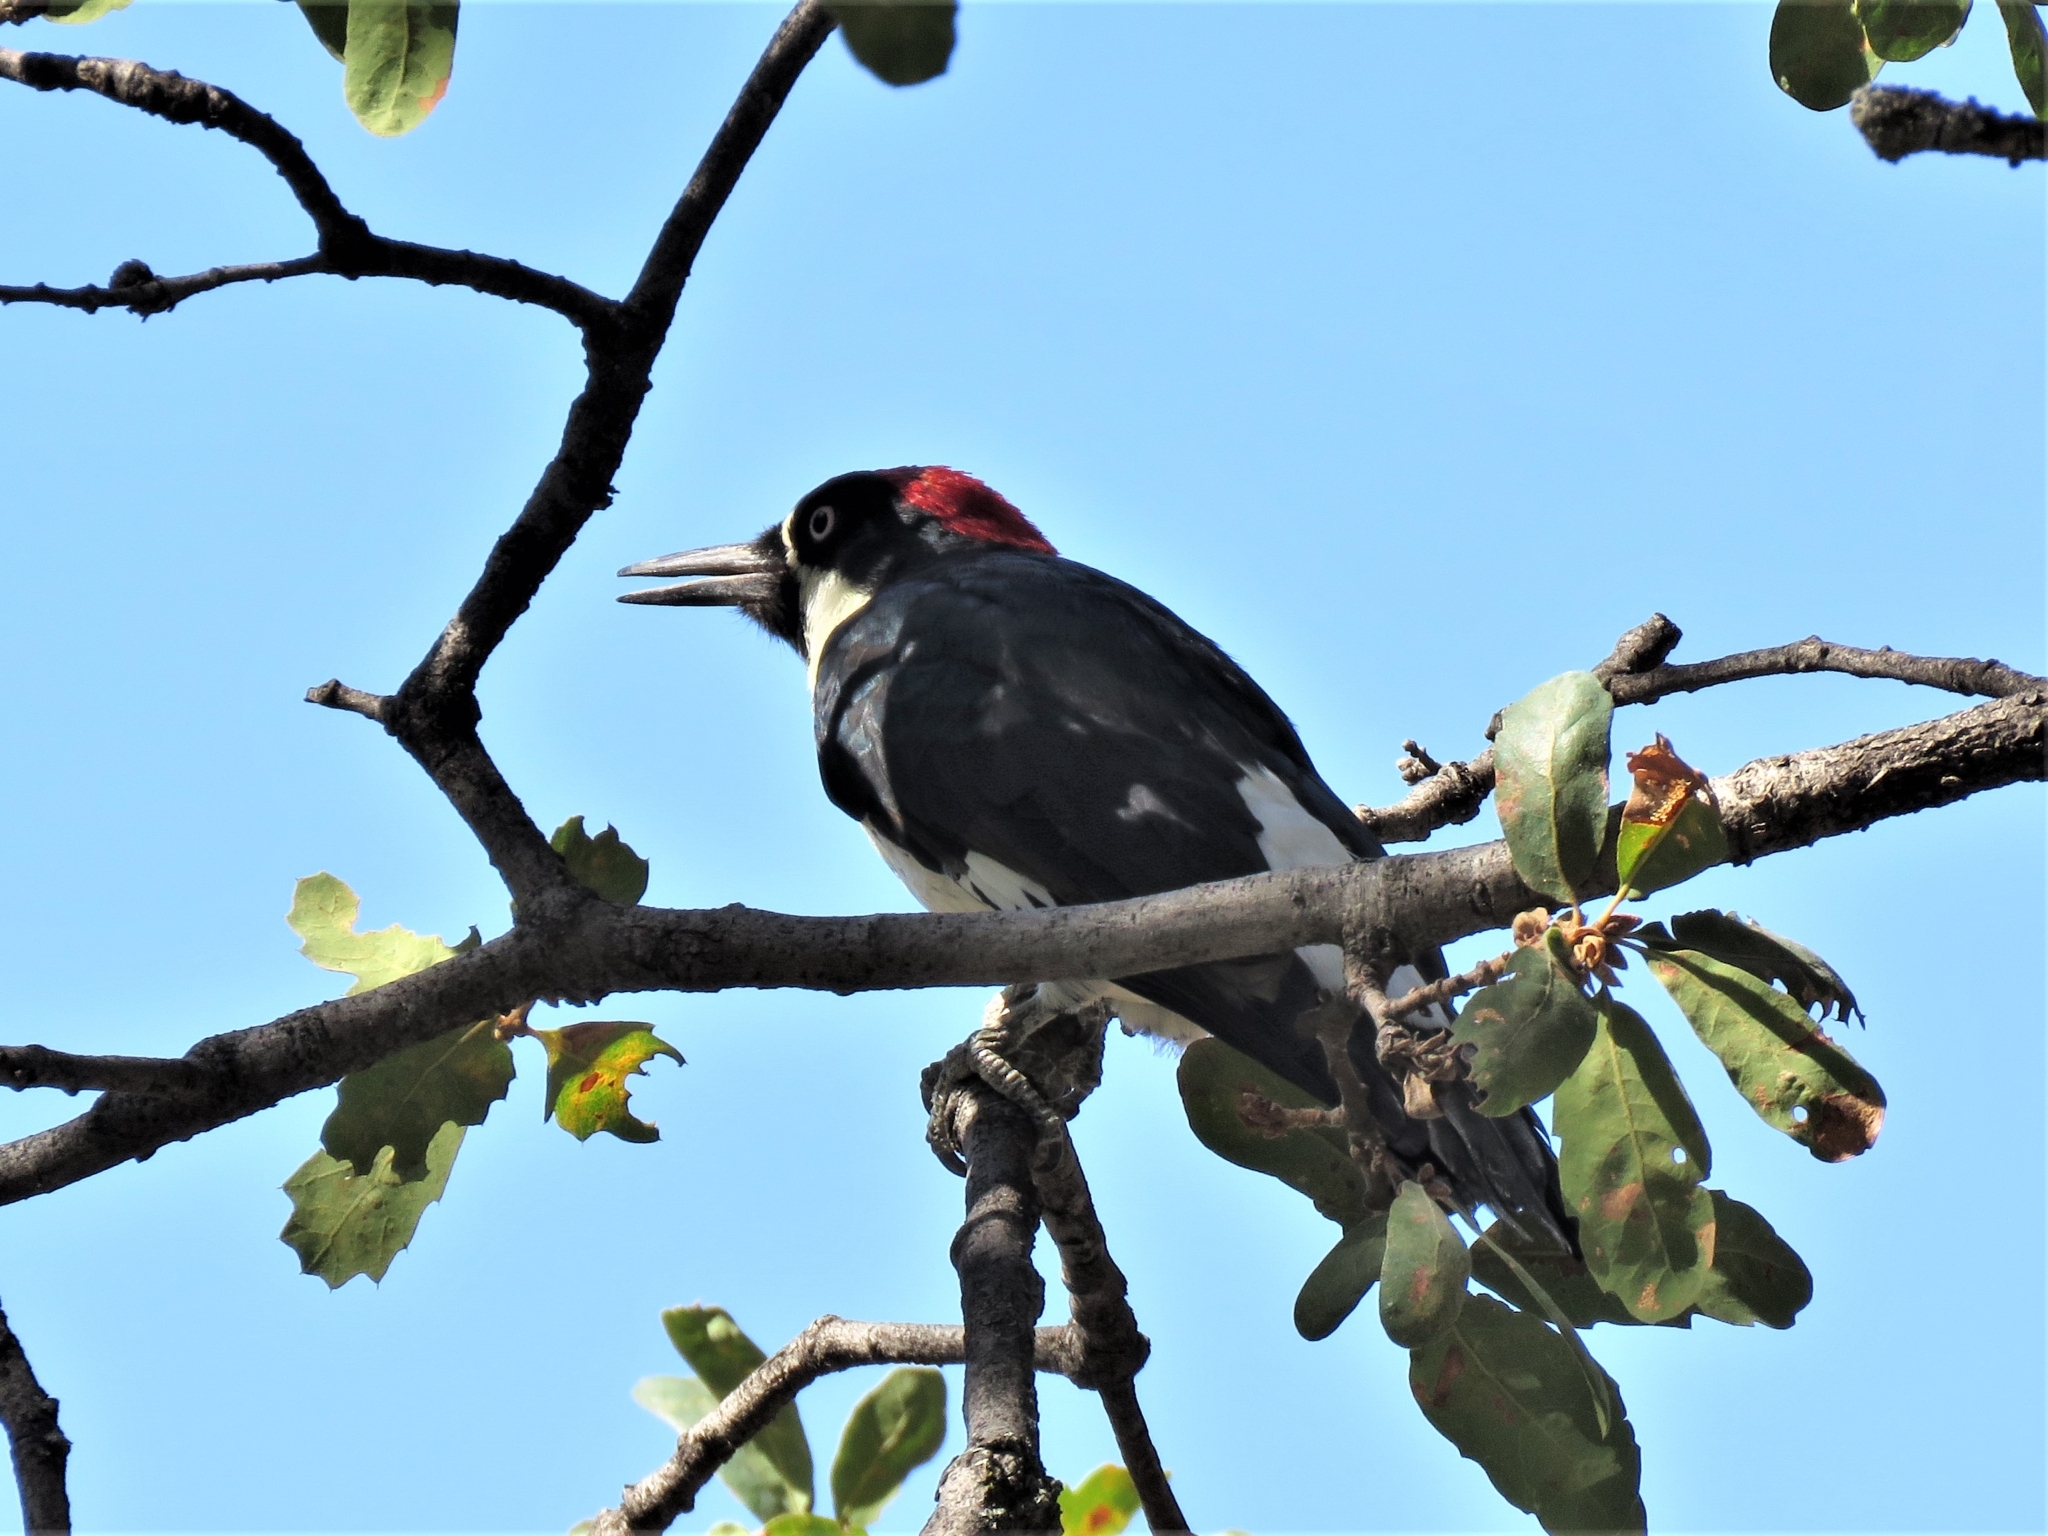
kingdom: Animalia
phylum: Chordata
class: Aves
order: Piciformes
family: Picidae
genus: Melanerpes
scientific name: Melanerpes formicivorus
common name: Acorn woodpecker
